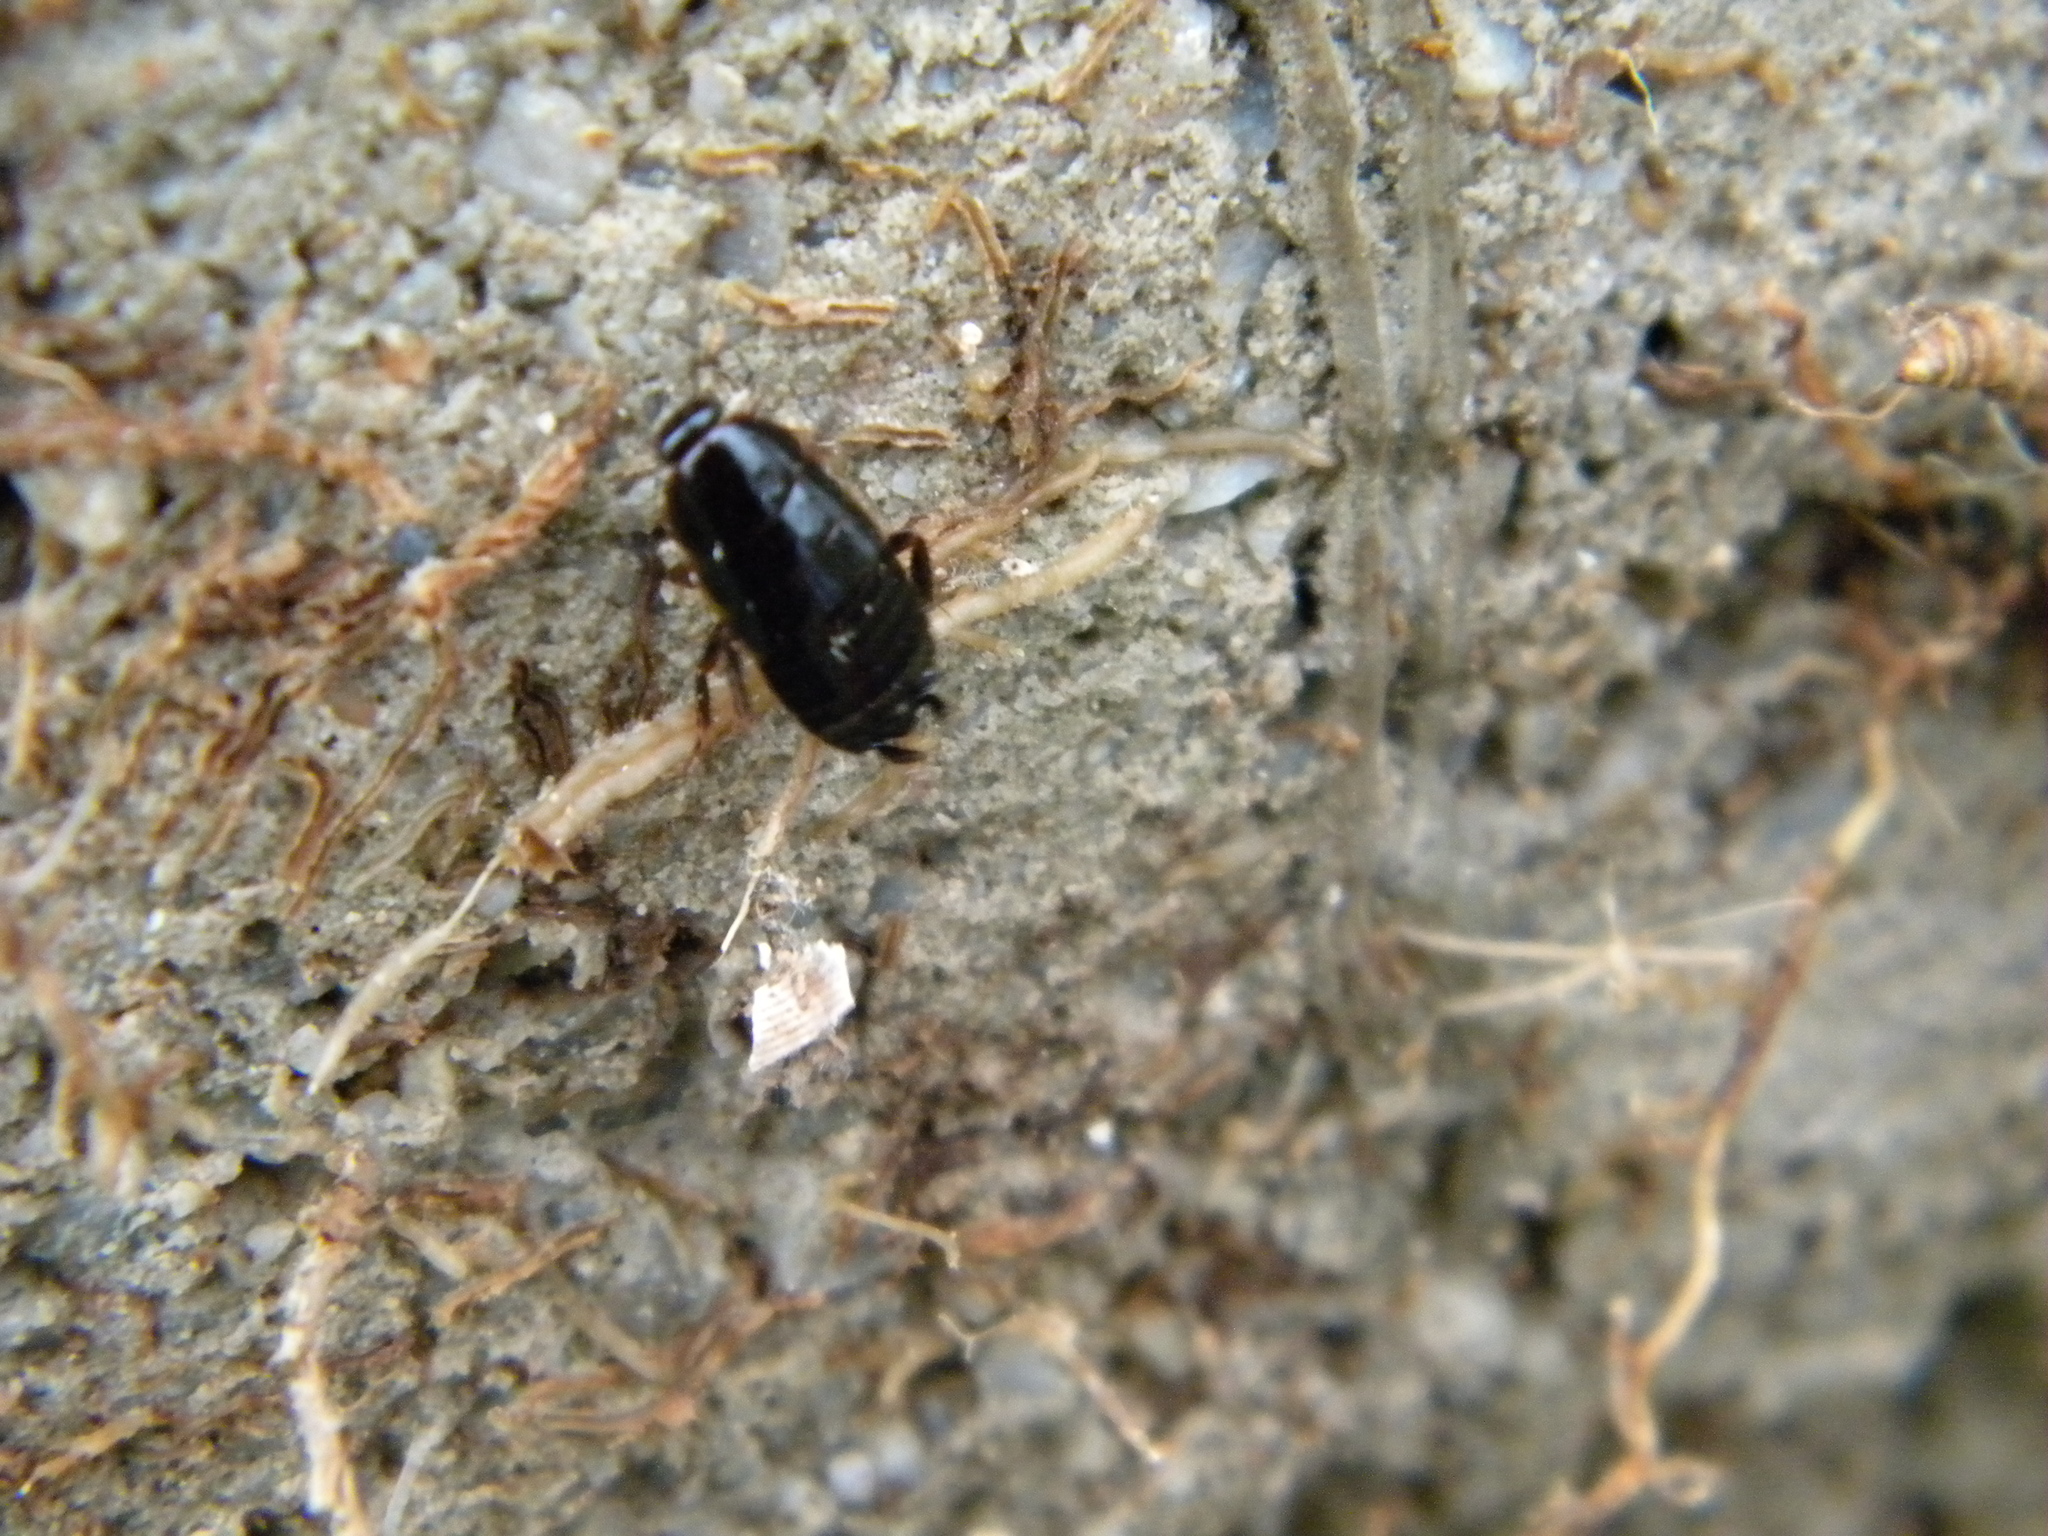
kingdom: Animalia
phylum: Arthropoda
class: Insecta
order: Blattodea
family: Ectobiidae
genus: Loboptera
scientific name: Loboptera decipiens
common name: Lobe-winged cockroach
